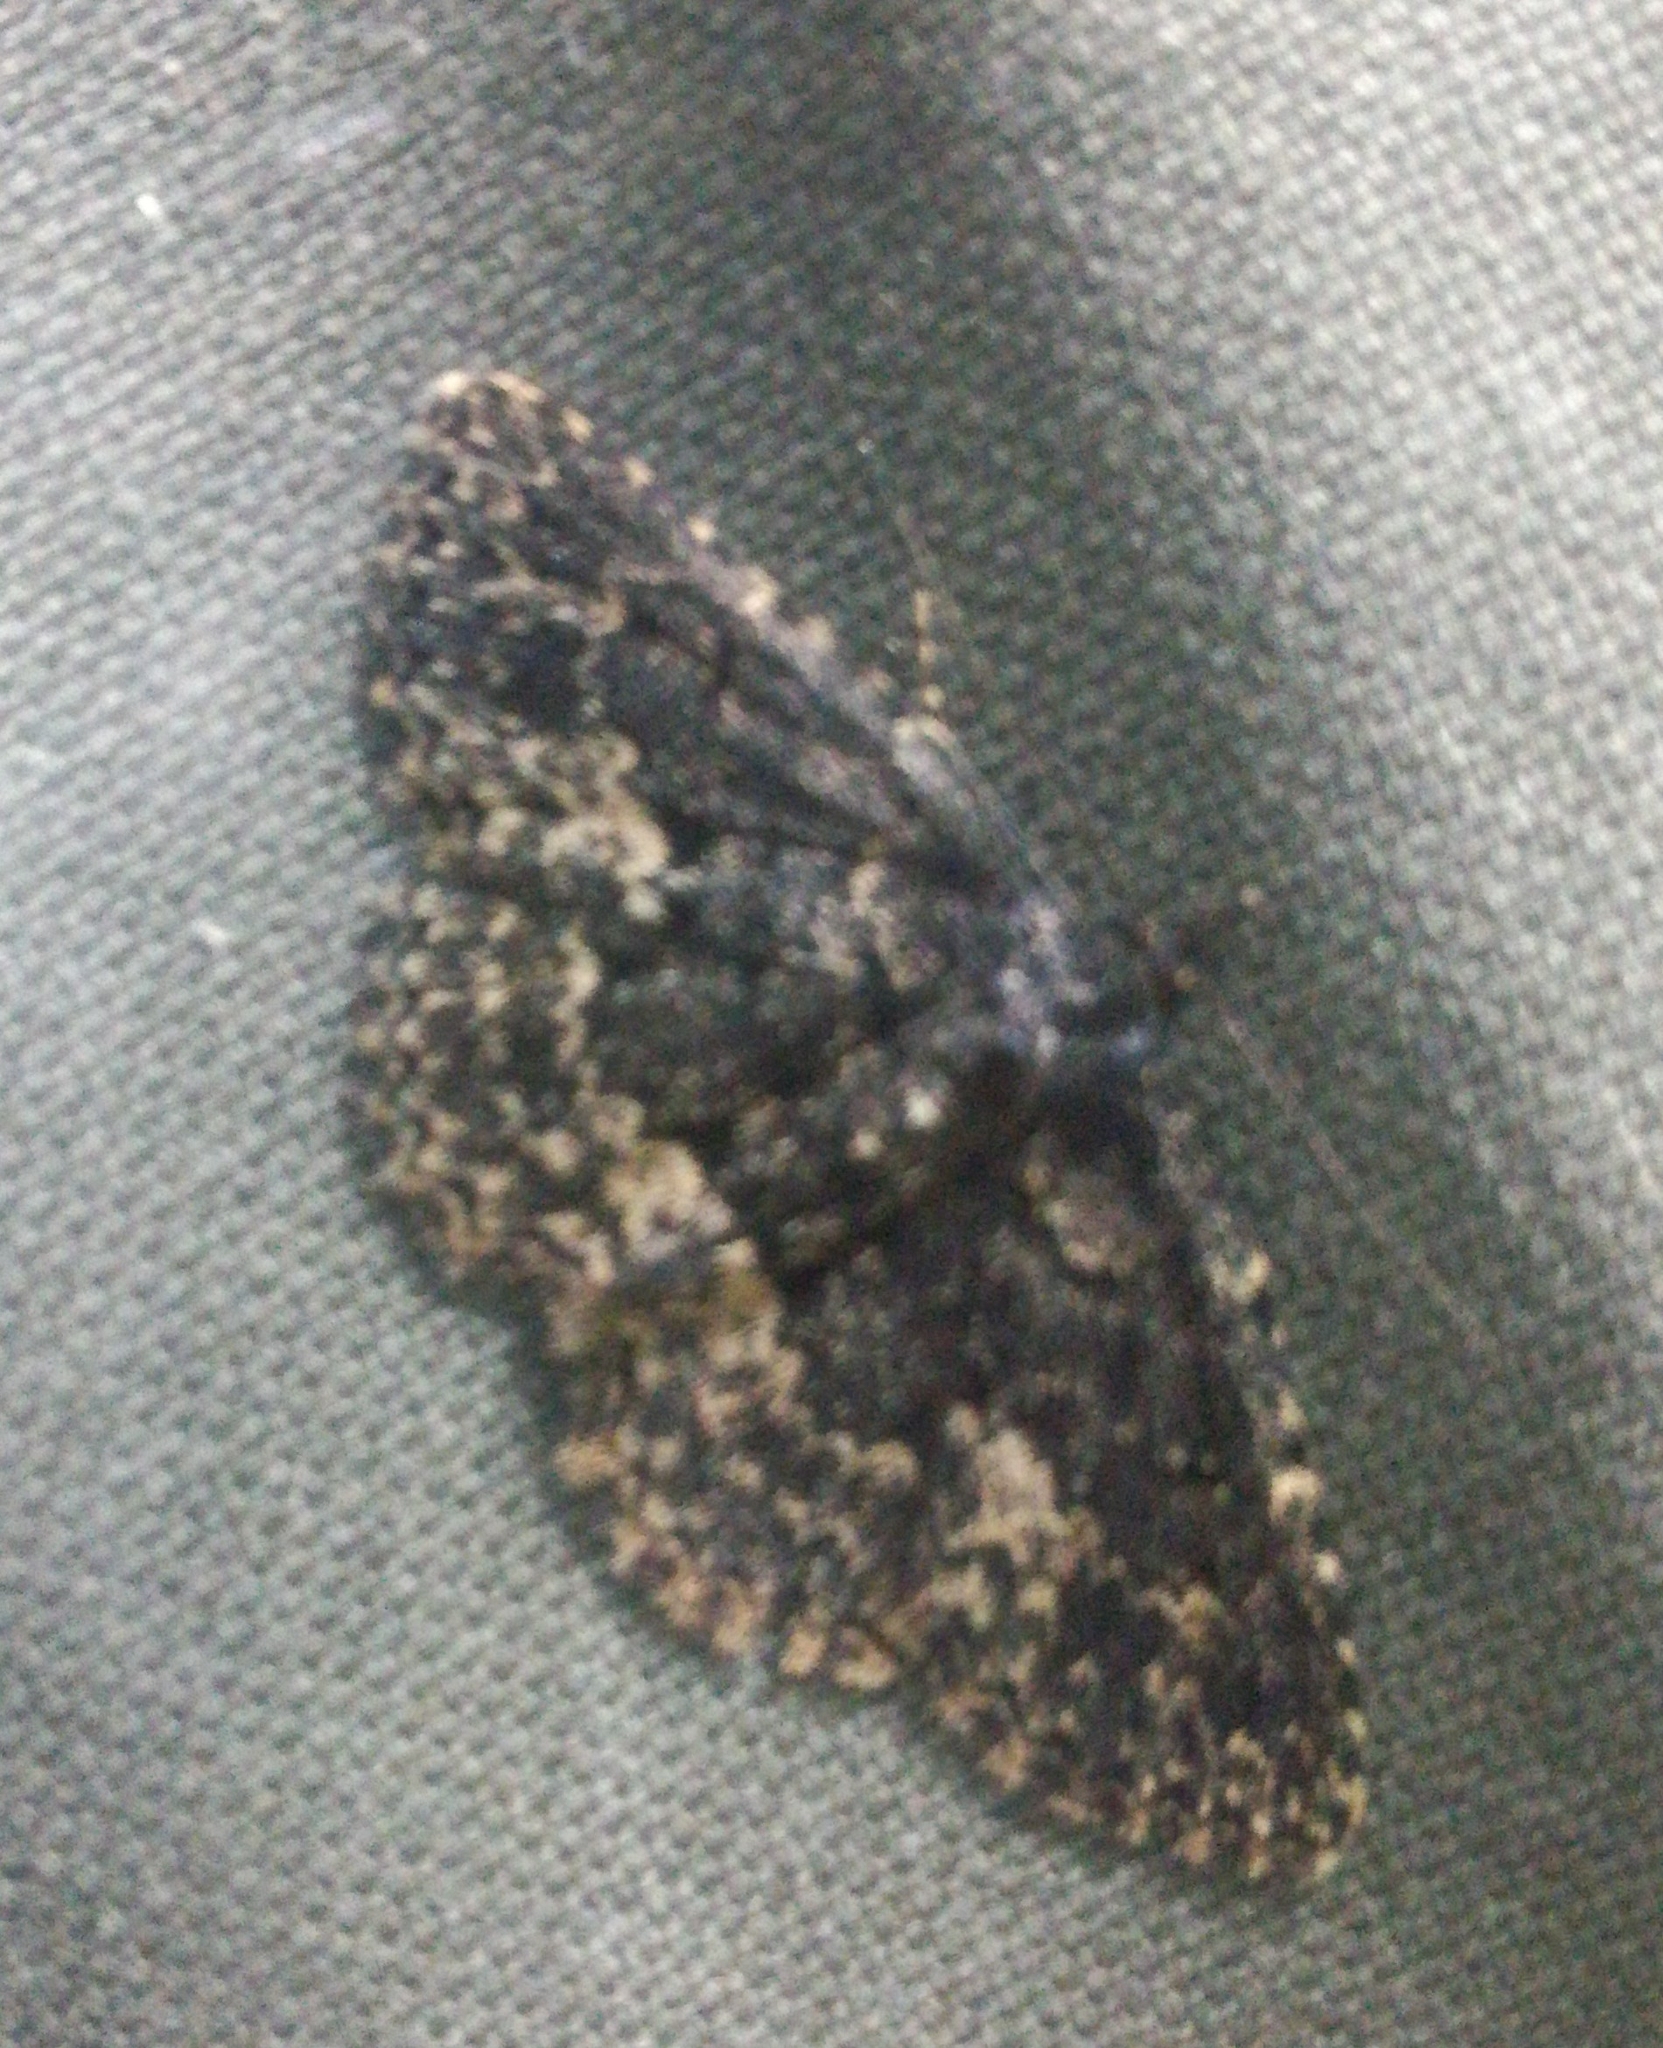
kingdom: Animalia
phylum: Arthropoda
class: Insecta
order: Lepidoptera
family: Erebidae
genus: Parascotia
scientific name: Parascotia fuliginaria
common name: Waved black
